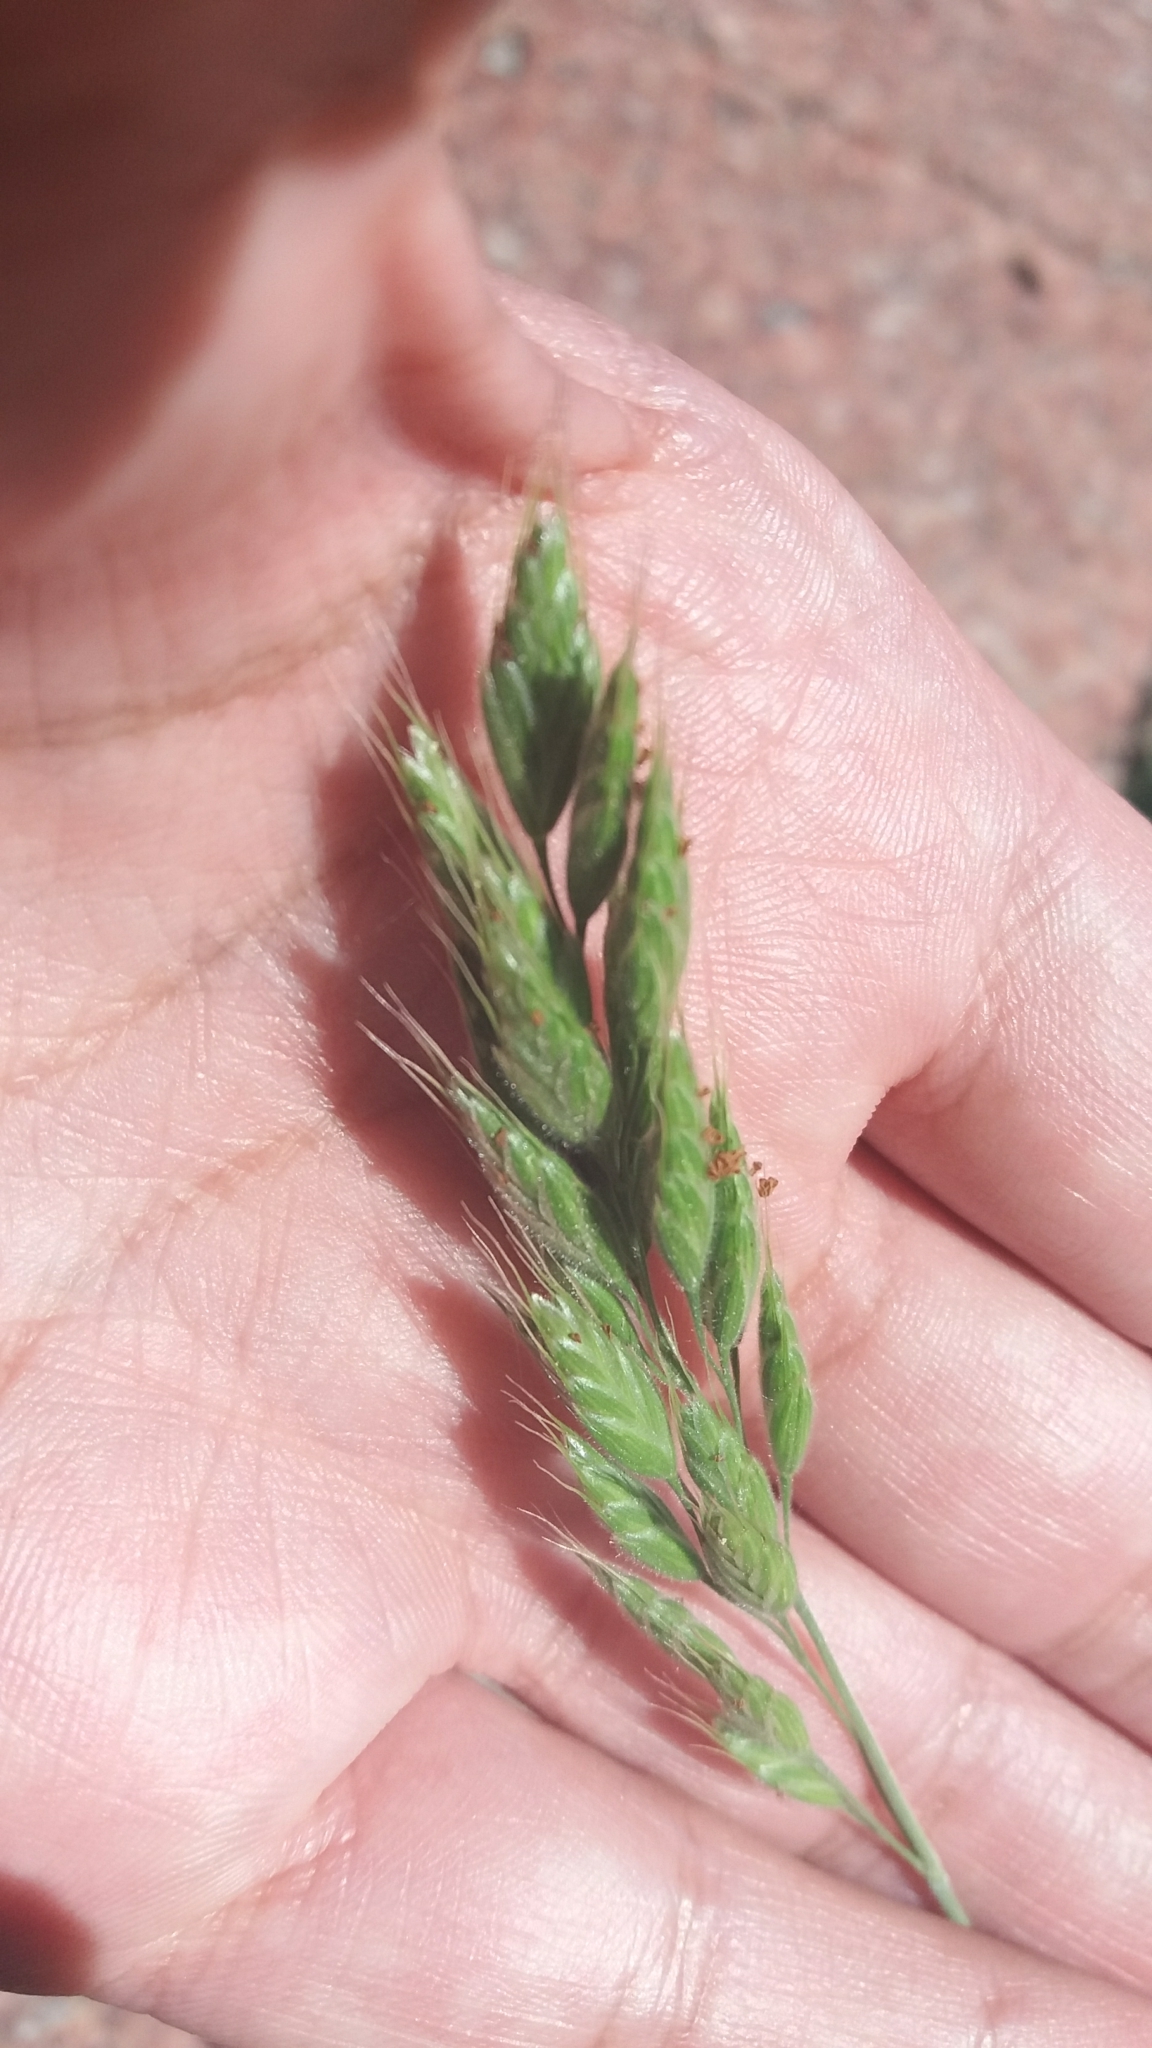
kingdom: Plantae
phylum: Tracheophyta
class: Liliopsida
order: Poales
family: Poaceae
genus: Bromus
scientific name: Bromus hordeaceus
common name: Soft brome
